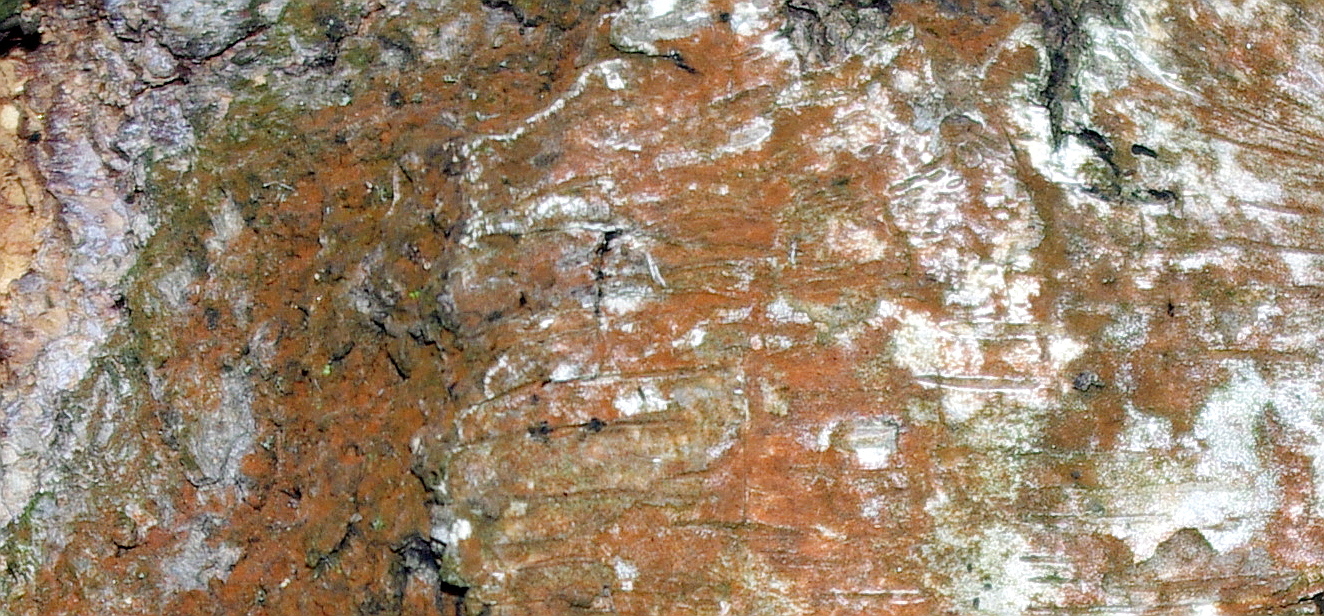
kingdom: Plantae
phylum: Chlorophyta
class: Ulvophyceae
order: Trentepohliales
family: Trentepohliaceae
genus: Trentepohlia
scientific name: Trentepohlia
